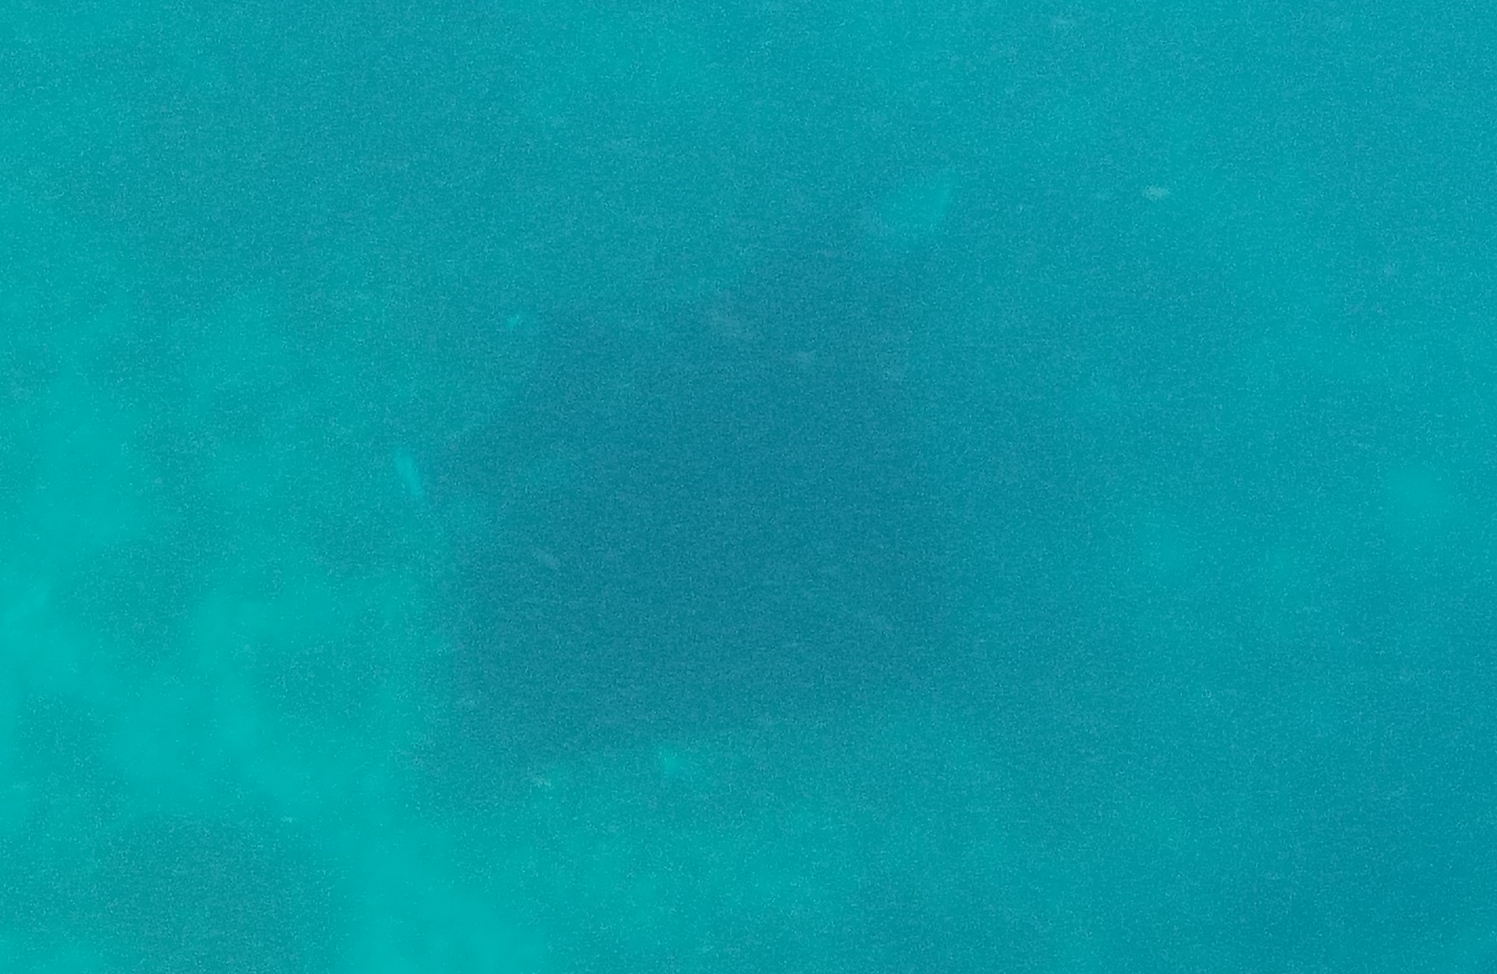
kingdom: Animalia
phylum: Chordata
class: Elasmobranchii
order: Myliobatiformes
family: Myliobatidae
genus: Mobula
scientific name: Mobula alfredi
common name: Reef manta ray
